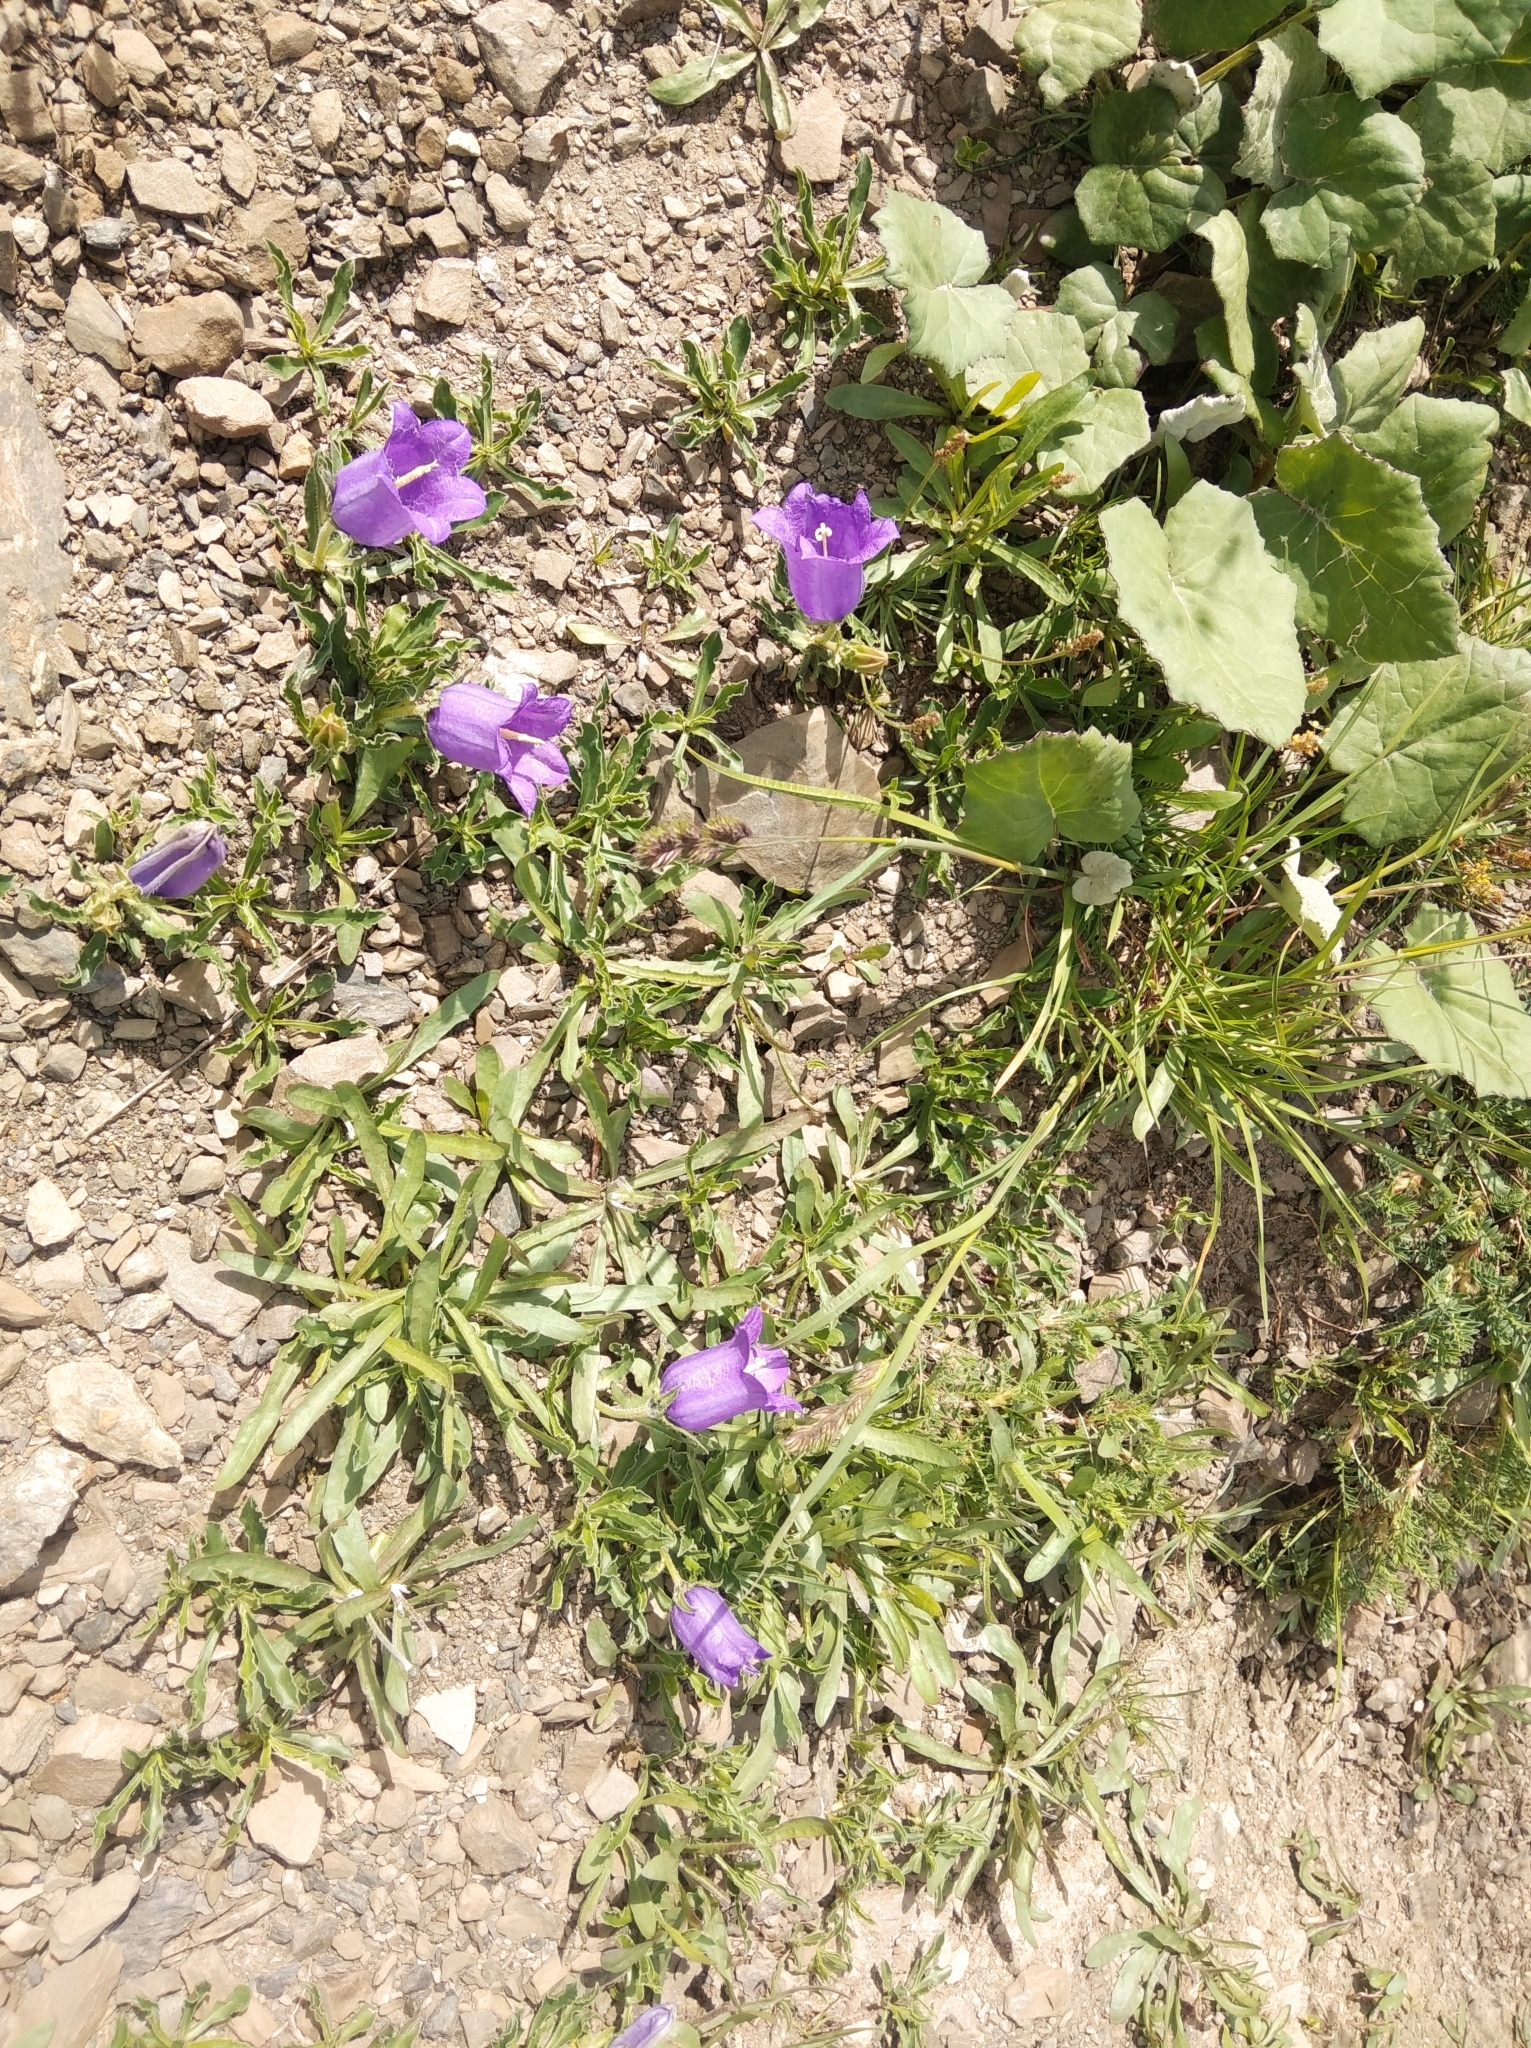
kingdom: Plantae
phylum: Tracheophyta
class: Magnoliopsida
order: Asterales
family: Campanulaceae
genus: Campanula
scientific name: Campanula alpestris
